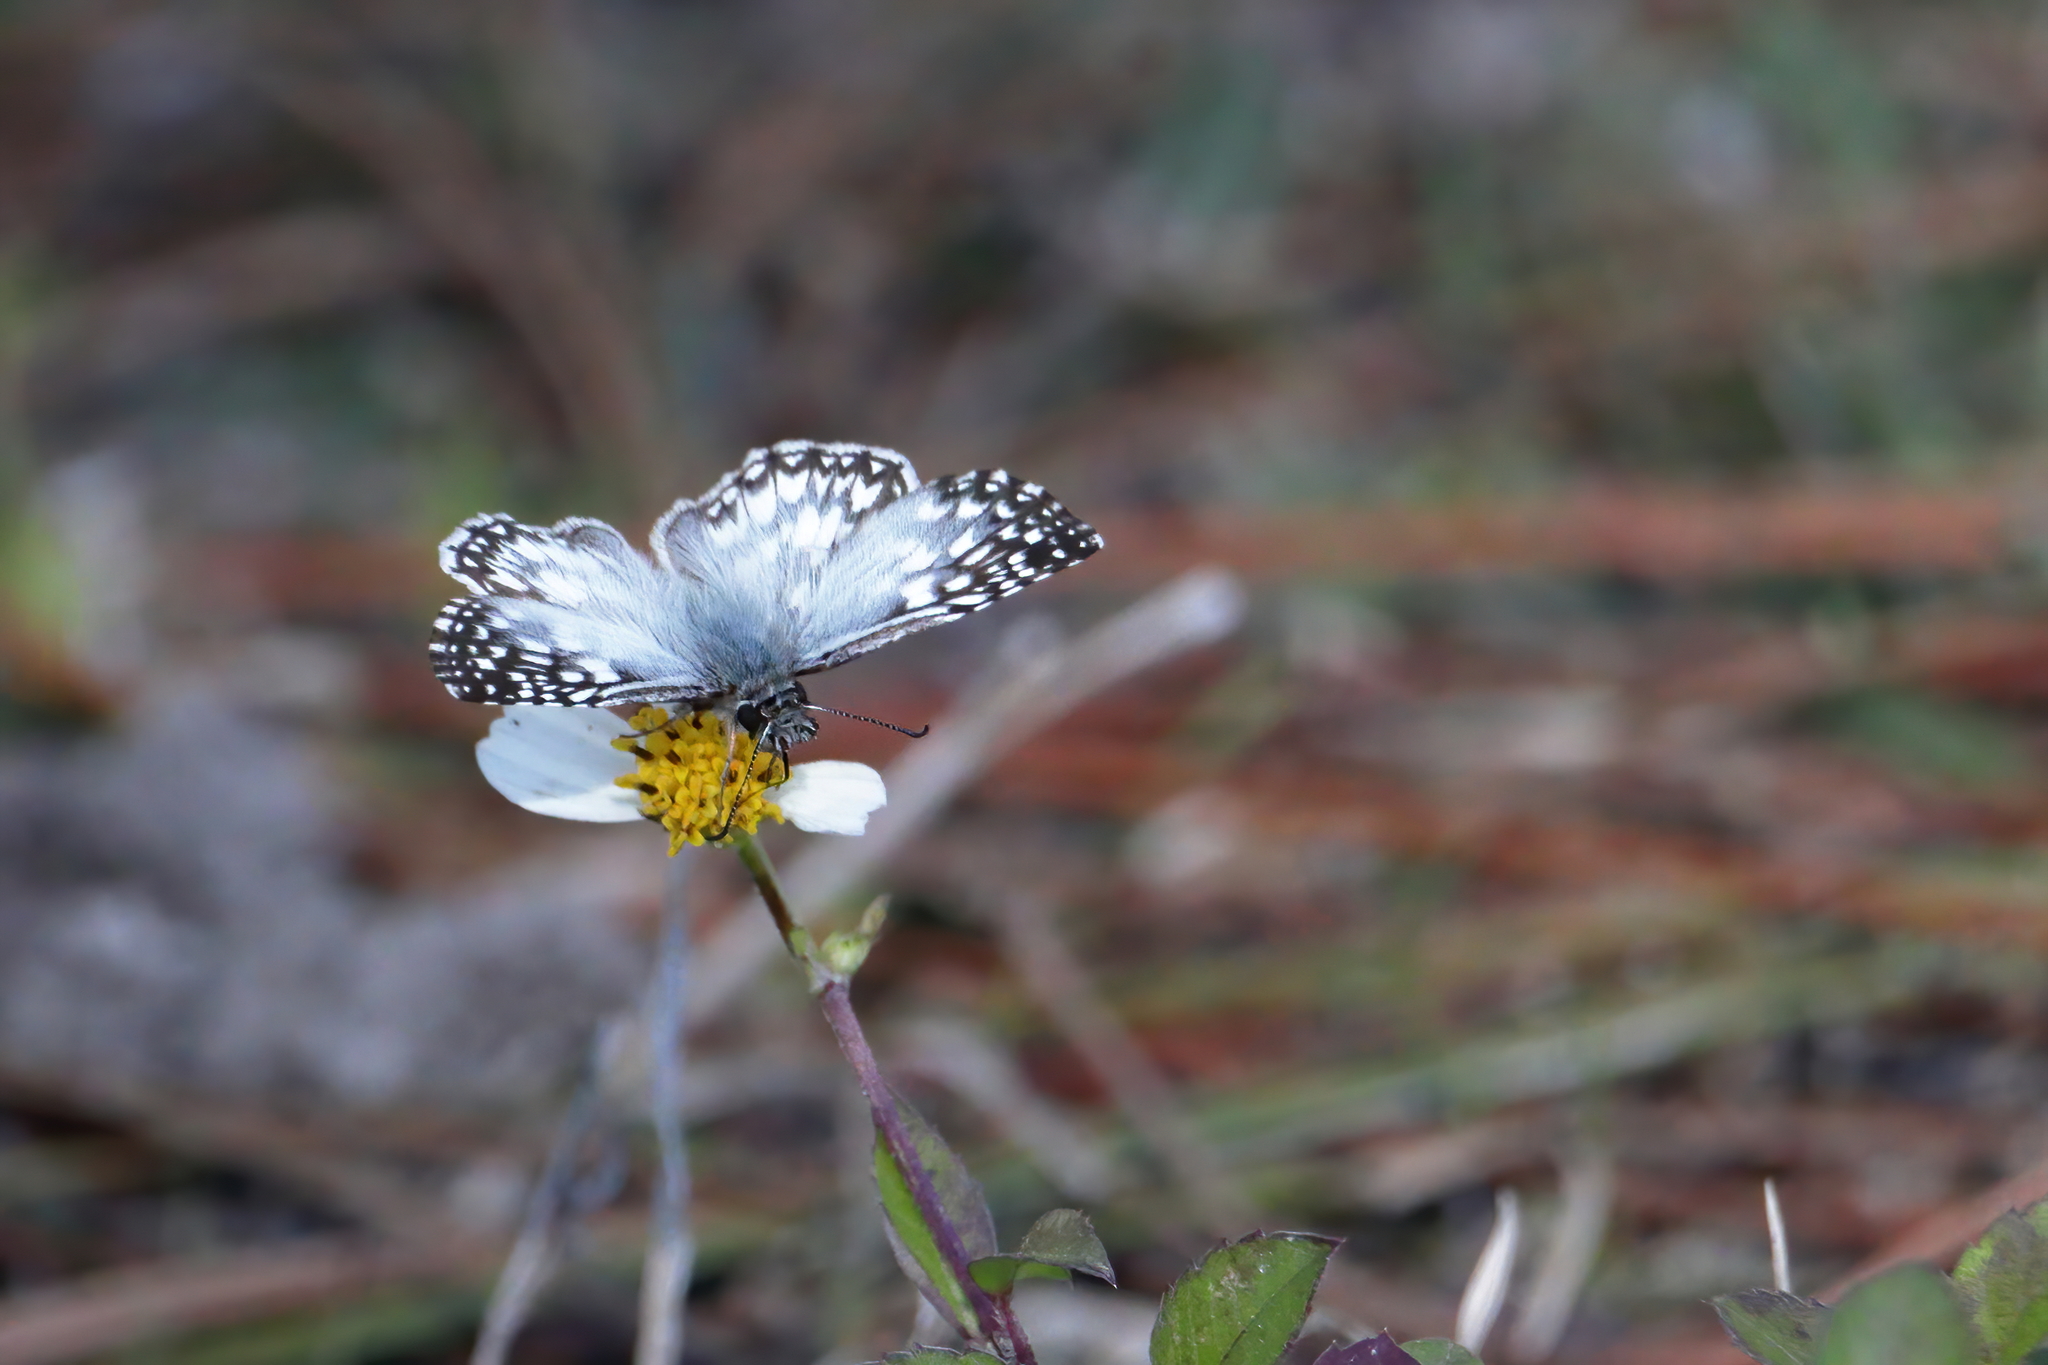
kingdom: Animalia
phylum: Arthropoda
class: Insecta
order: Lepidoptera
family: Hesperiidae
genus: Pyrgus
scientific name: Pyrgus oileus
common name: Tropical checkered-skipper
